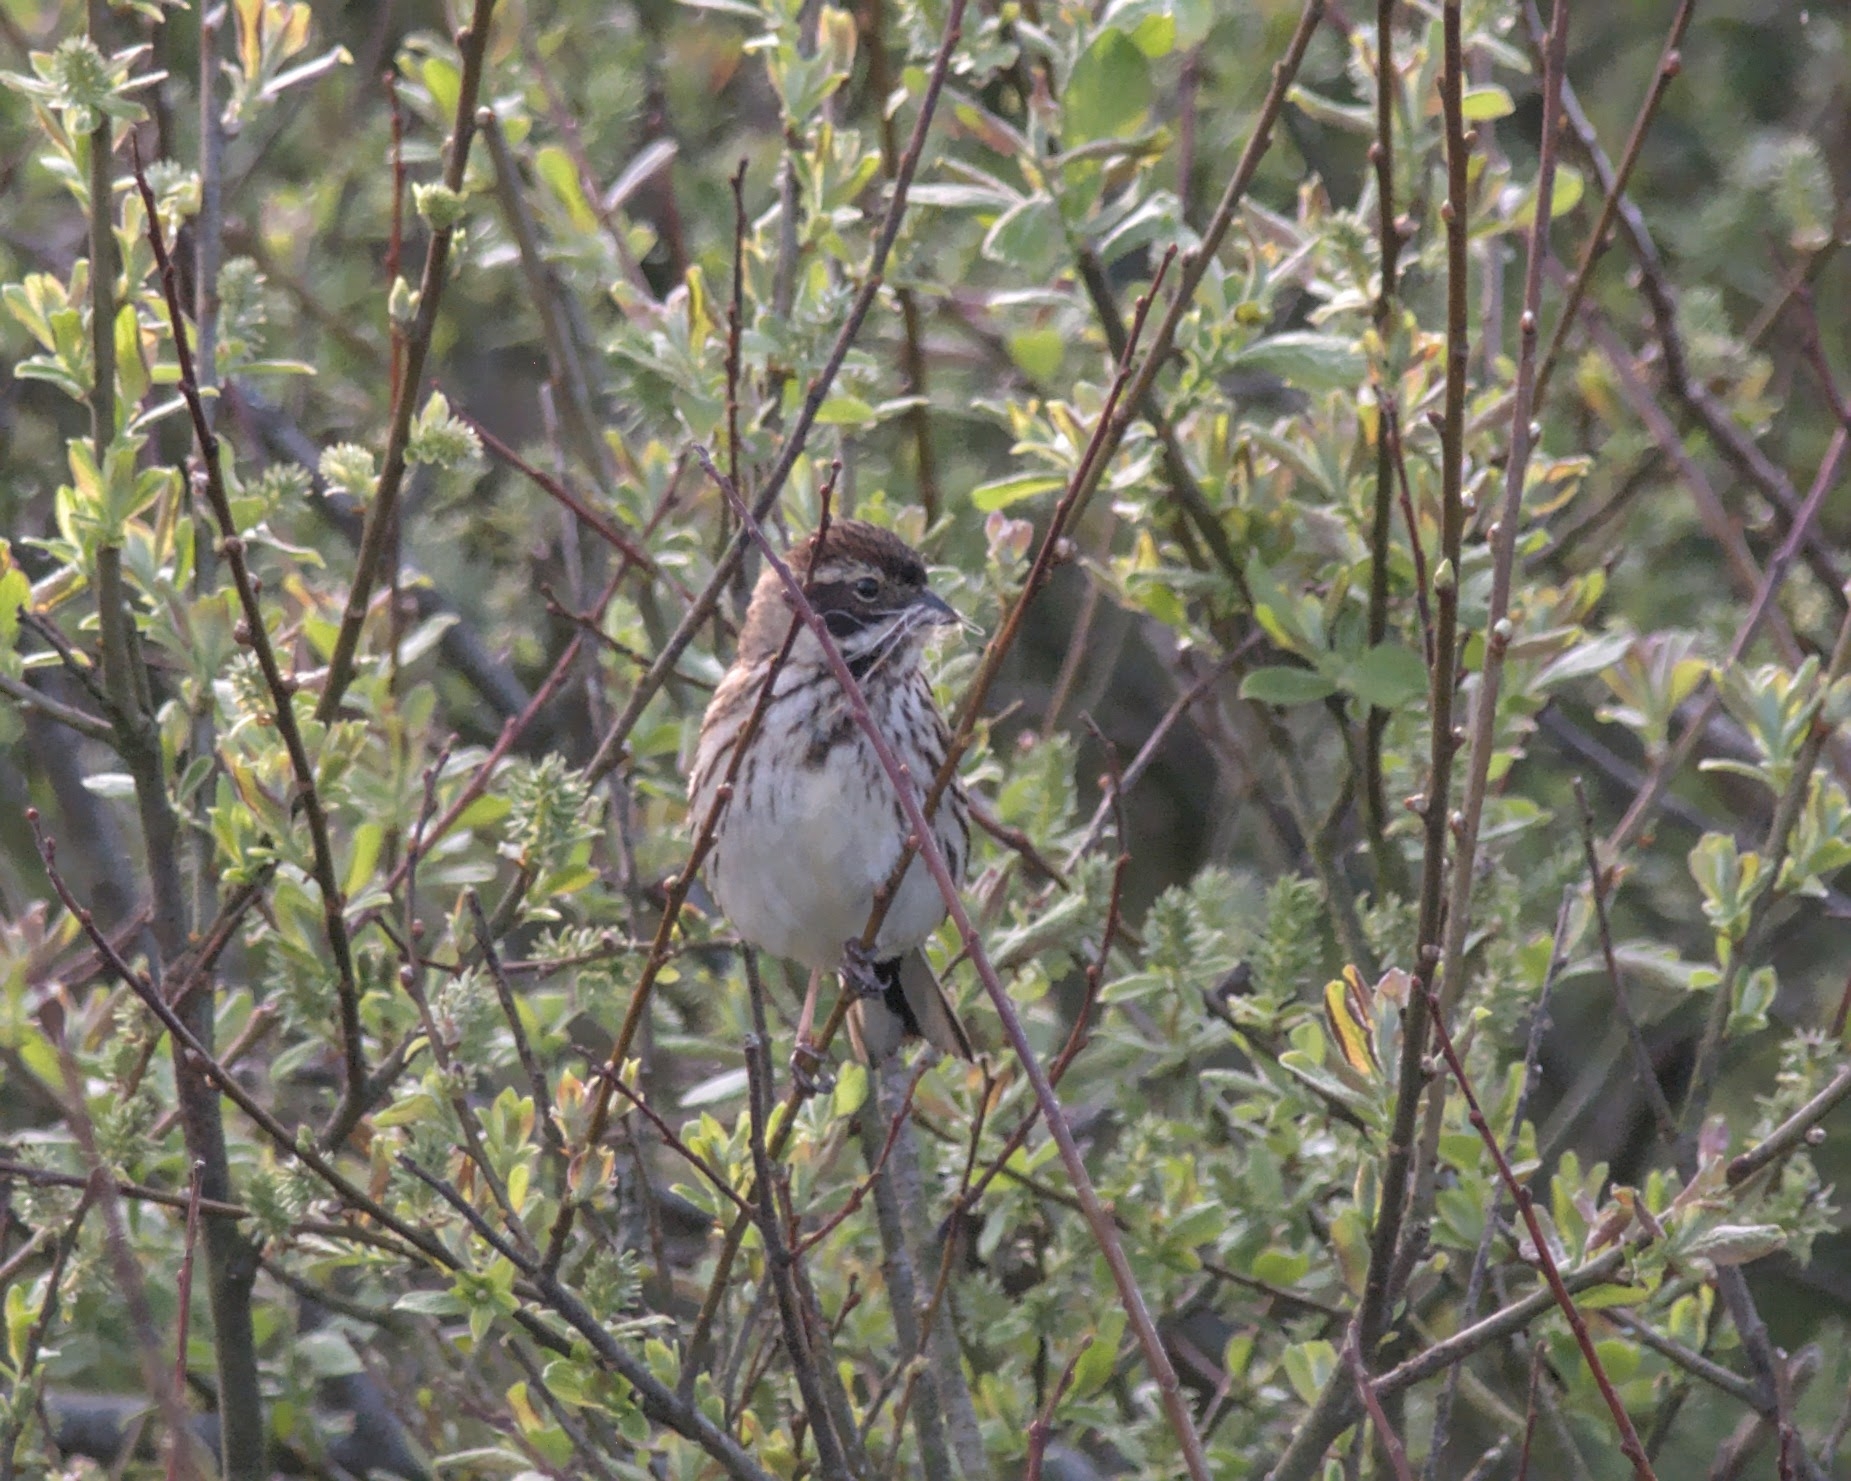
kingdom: Animalia
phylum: Chordata
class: Aves
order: Passeriformes
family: Emberizidae
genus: Emberiza
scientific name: Emberiza schoeniclus
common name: Reed bunting
